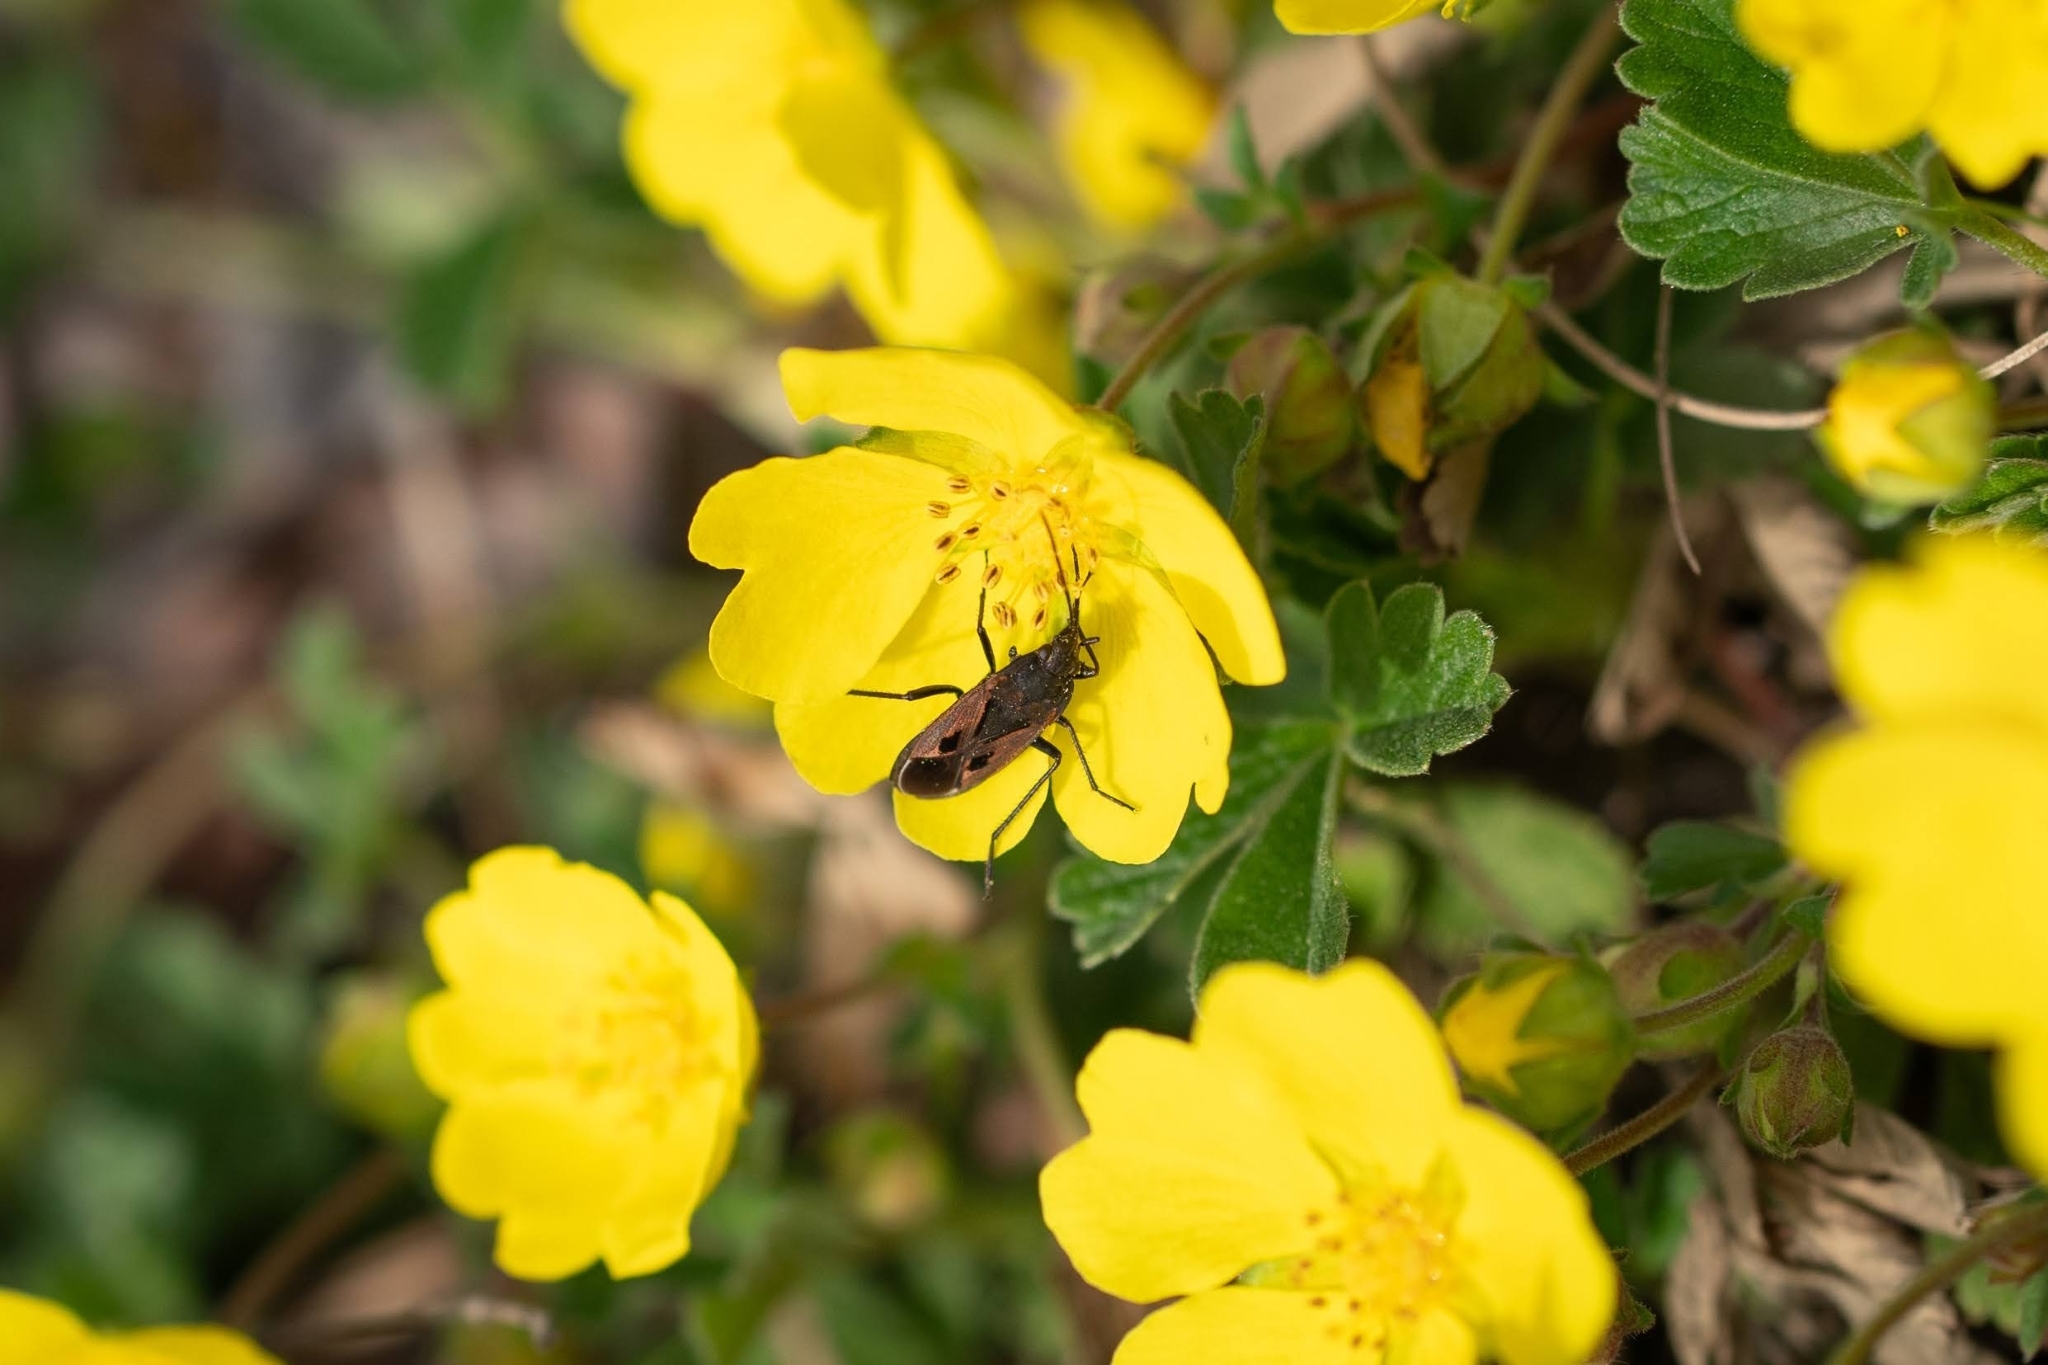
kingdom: Plantae
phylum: Tracheophyta
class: Magnoliopsida
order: Rosales
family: Rosaceae
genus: Potentilla
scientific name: Potentilla incana
